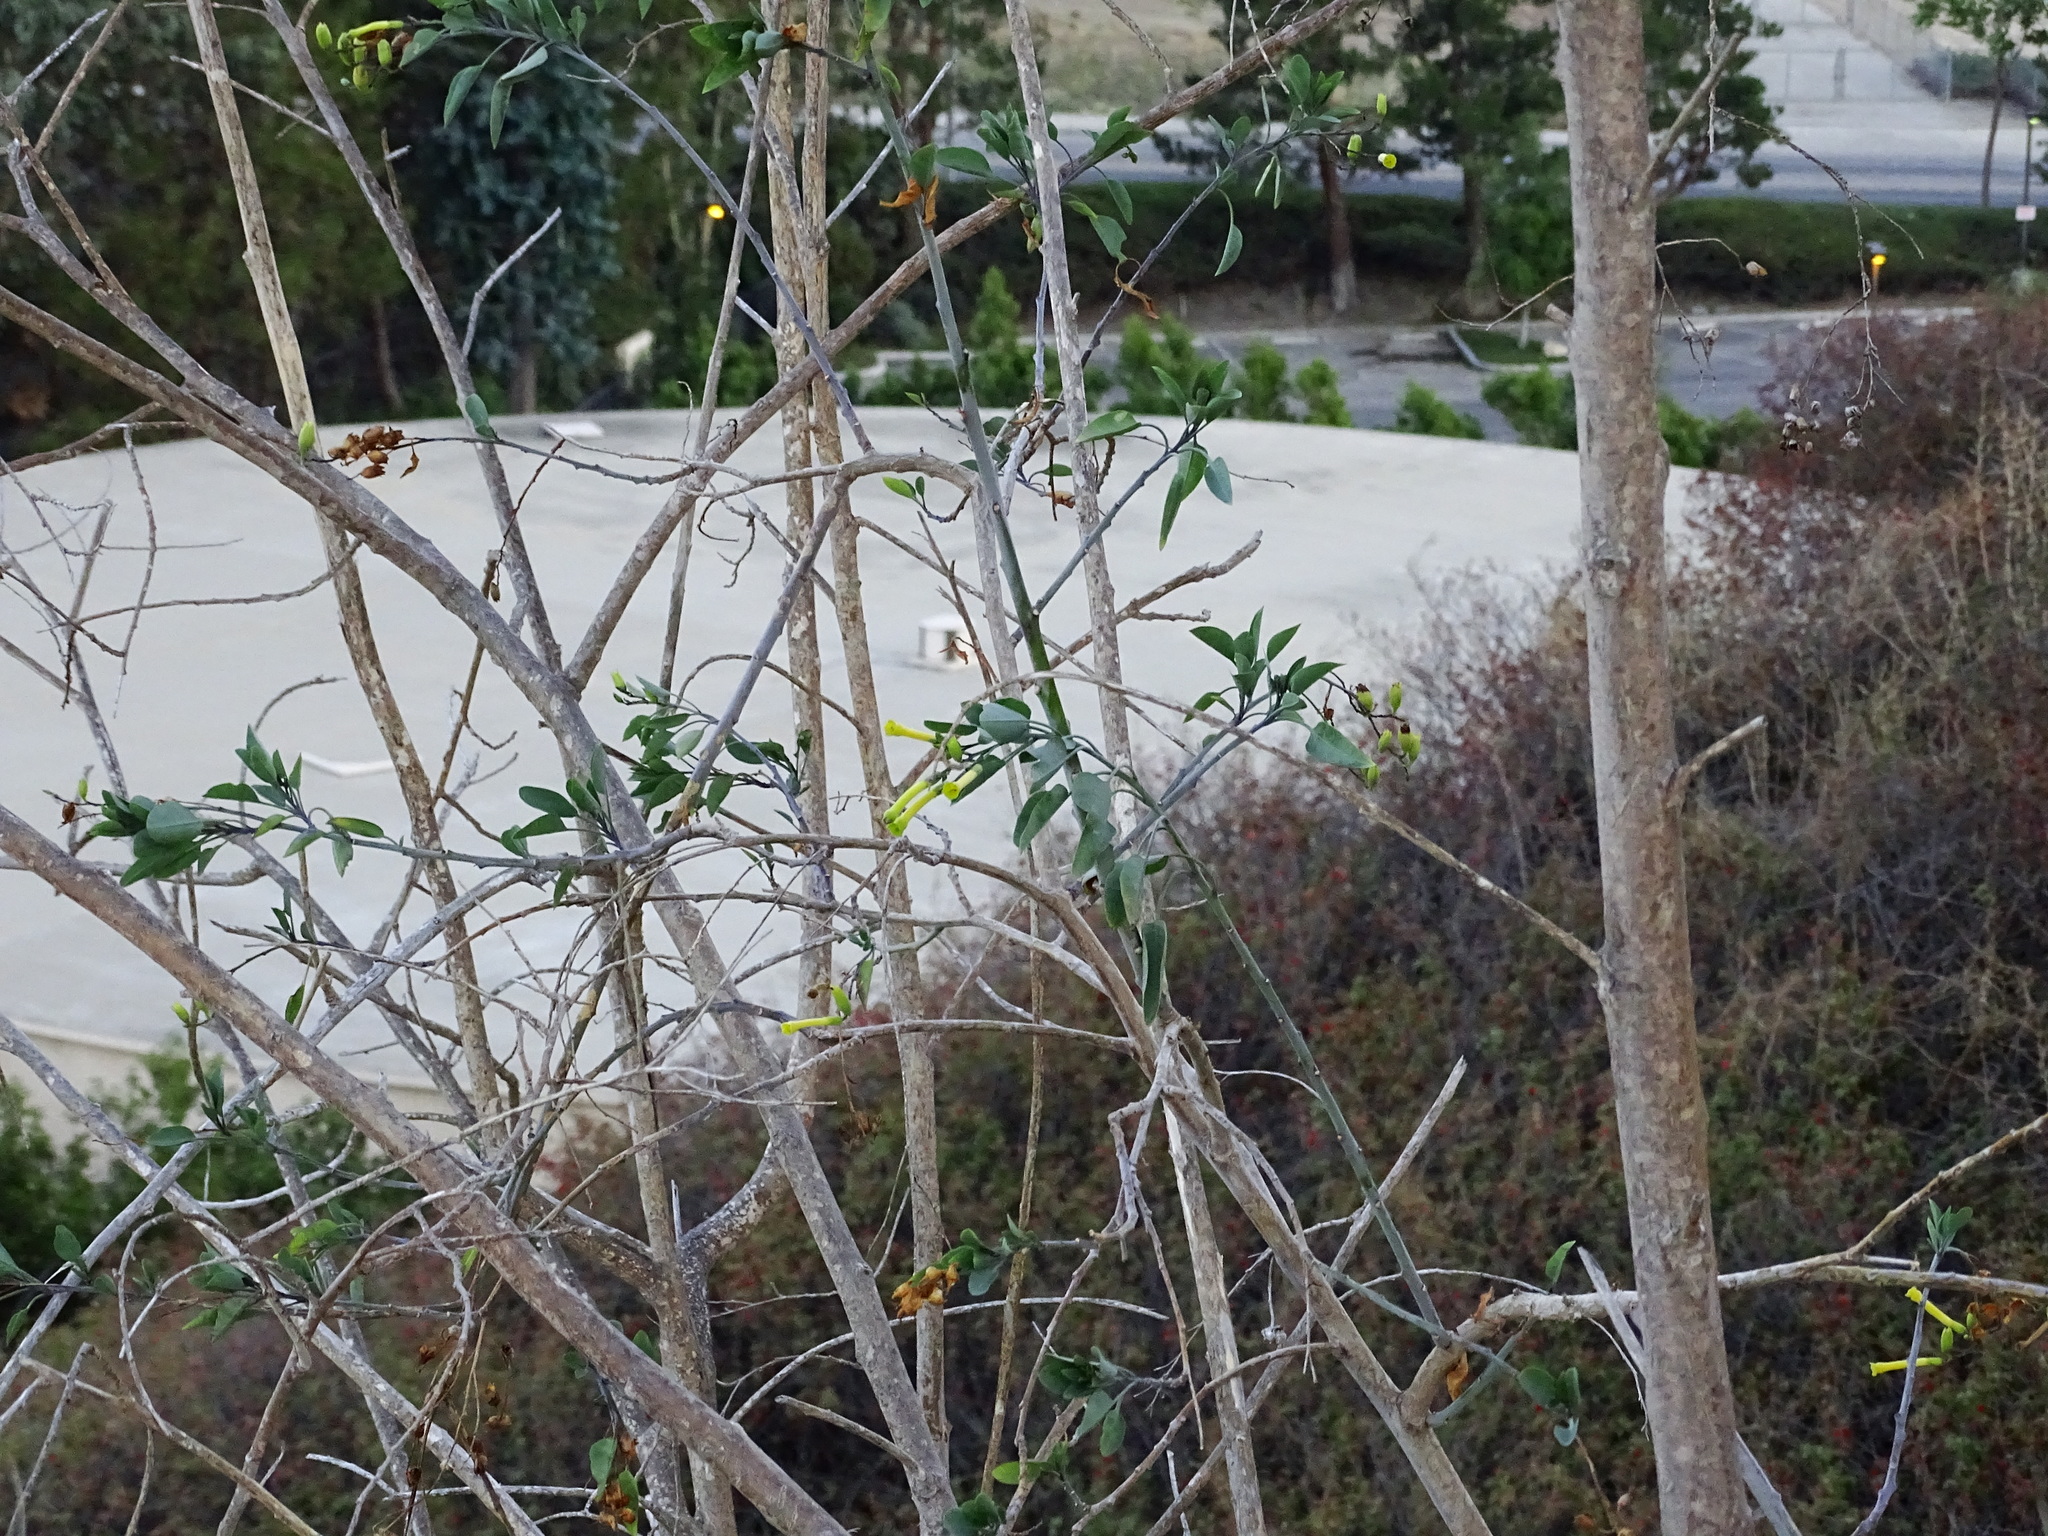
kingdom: Plantae
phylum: Tracheophyta
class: Magnoliopsida
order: Solanales
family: Solanaceae
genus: Nicotiana
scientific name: Nicotiana glauca
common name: Tree tobacco
